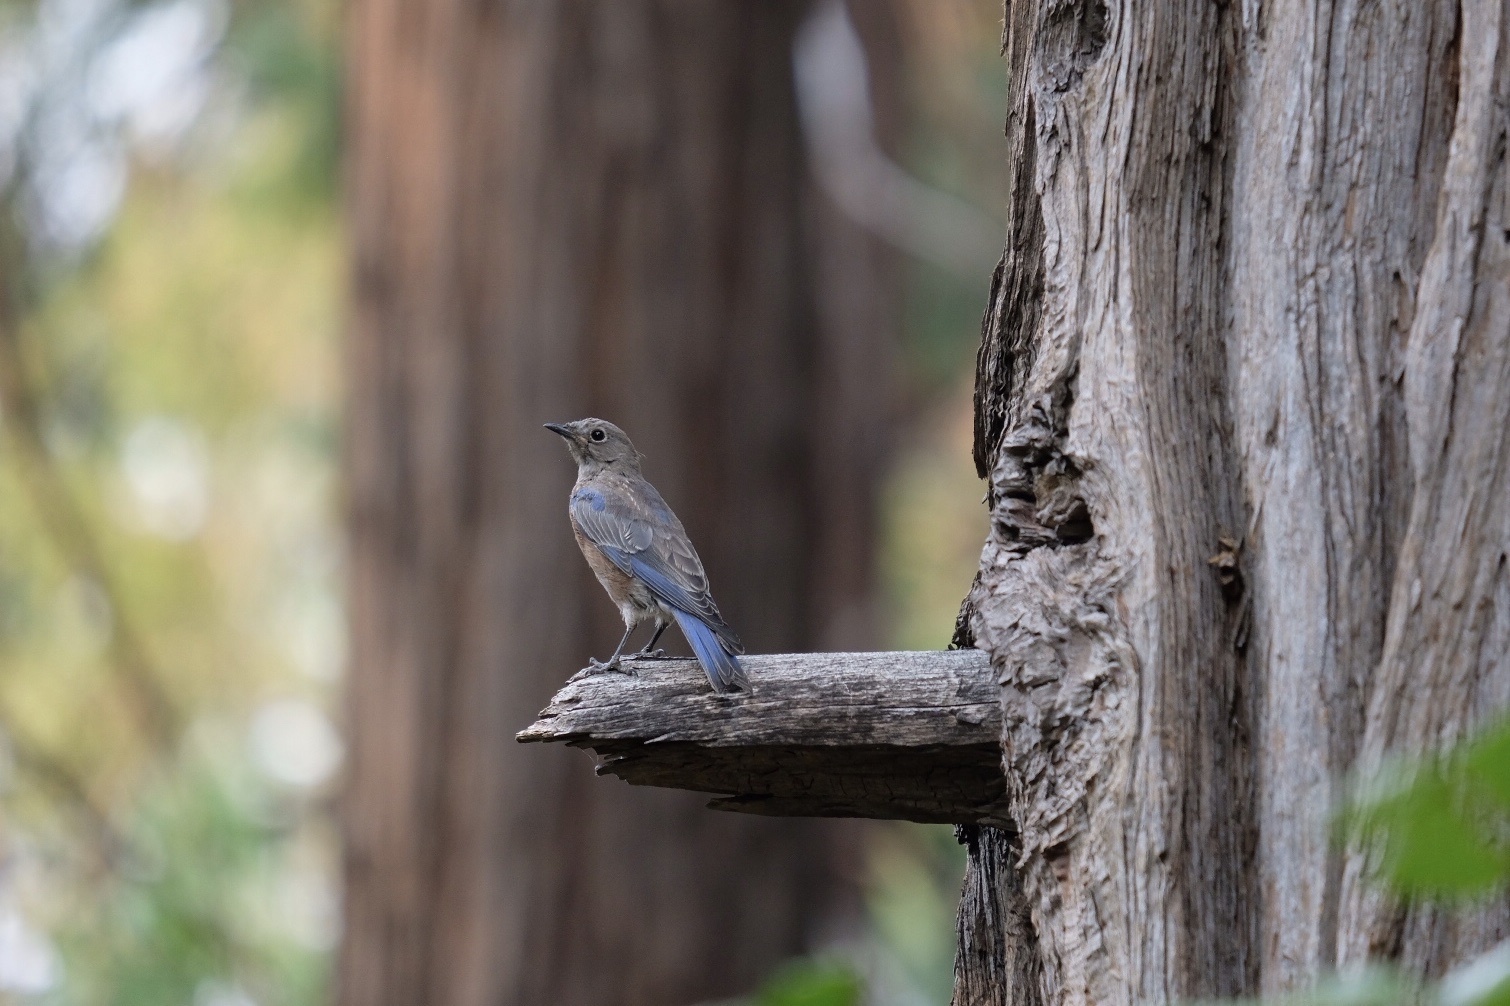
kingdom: Animalia
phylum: Chordata
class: Aves
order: Passeriformes
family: Turdidae
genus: Sialia
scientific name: Sialia mexicana
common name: Western bluebird
